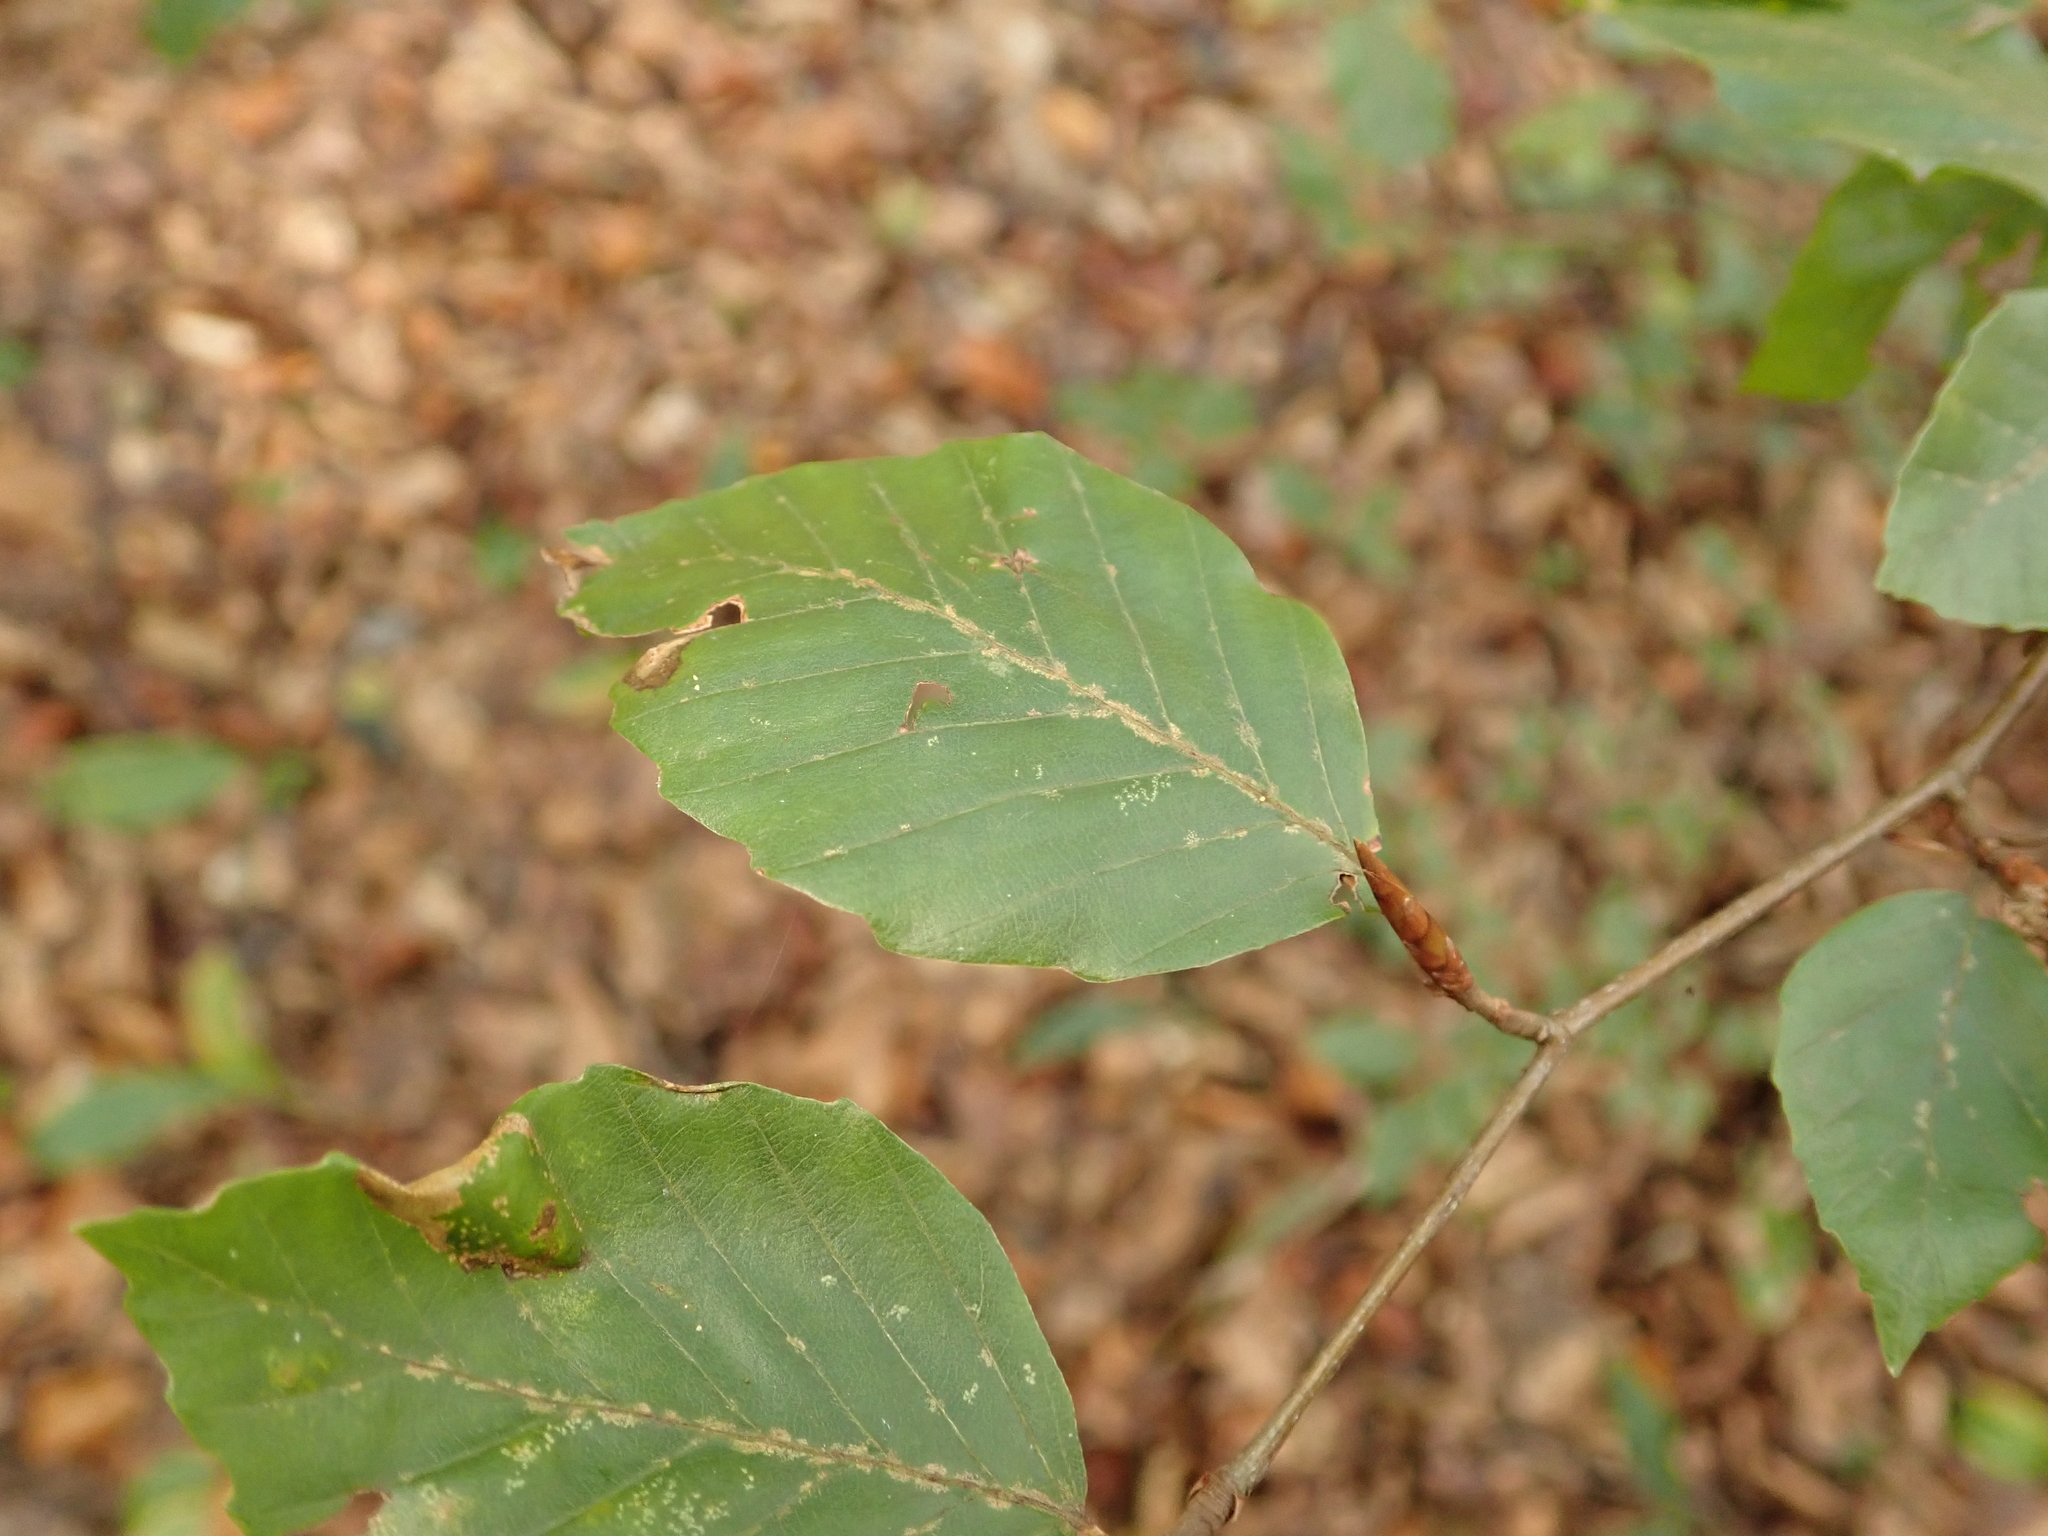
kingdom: Plantae
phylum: Tracheophyta
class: Magnoliopsida
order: Fagales
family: Fagaceae
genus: Fagus
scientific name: Fagus sylvatica
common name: Beech
